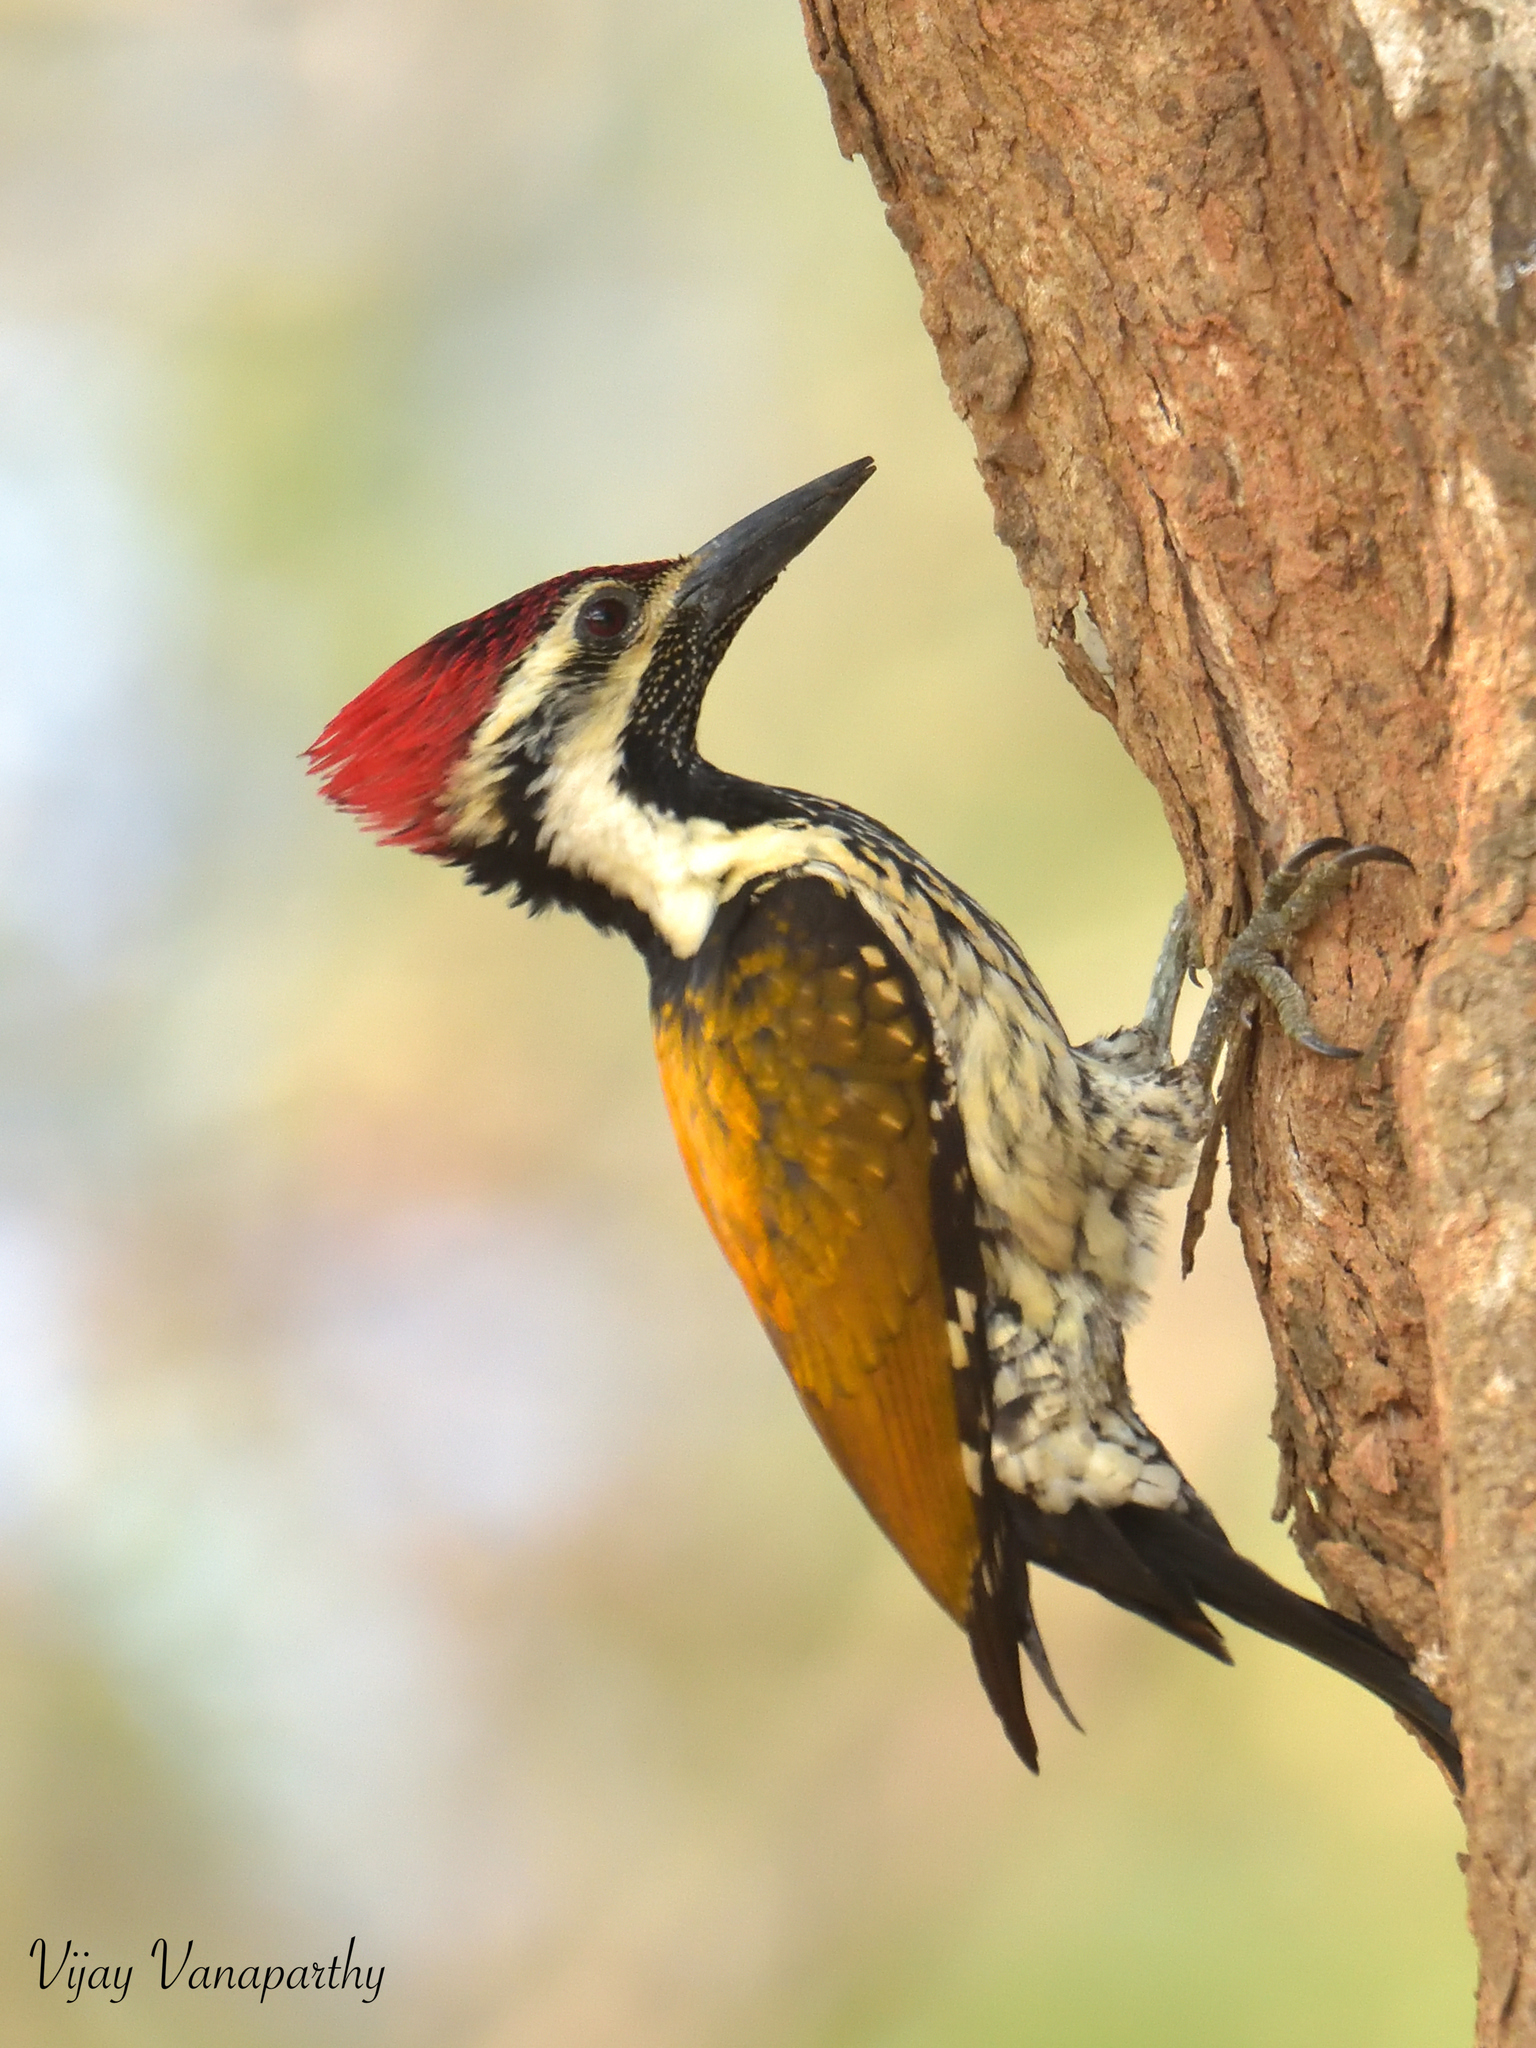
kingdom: Animalia
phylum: Chordata
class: Aves
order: Piciformes
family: Picidae
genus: Dinopium
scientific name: Dinopium benghalense
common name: Black-rumped flameback
